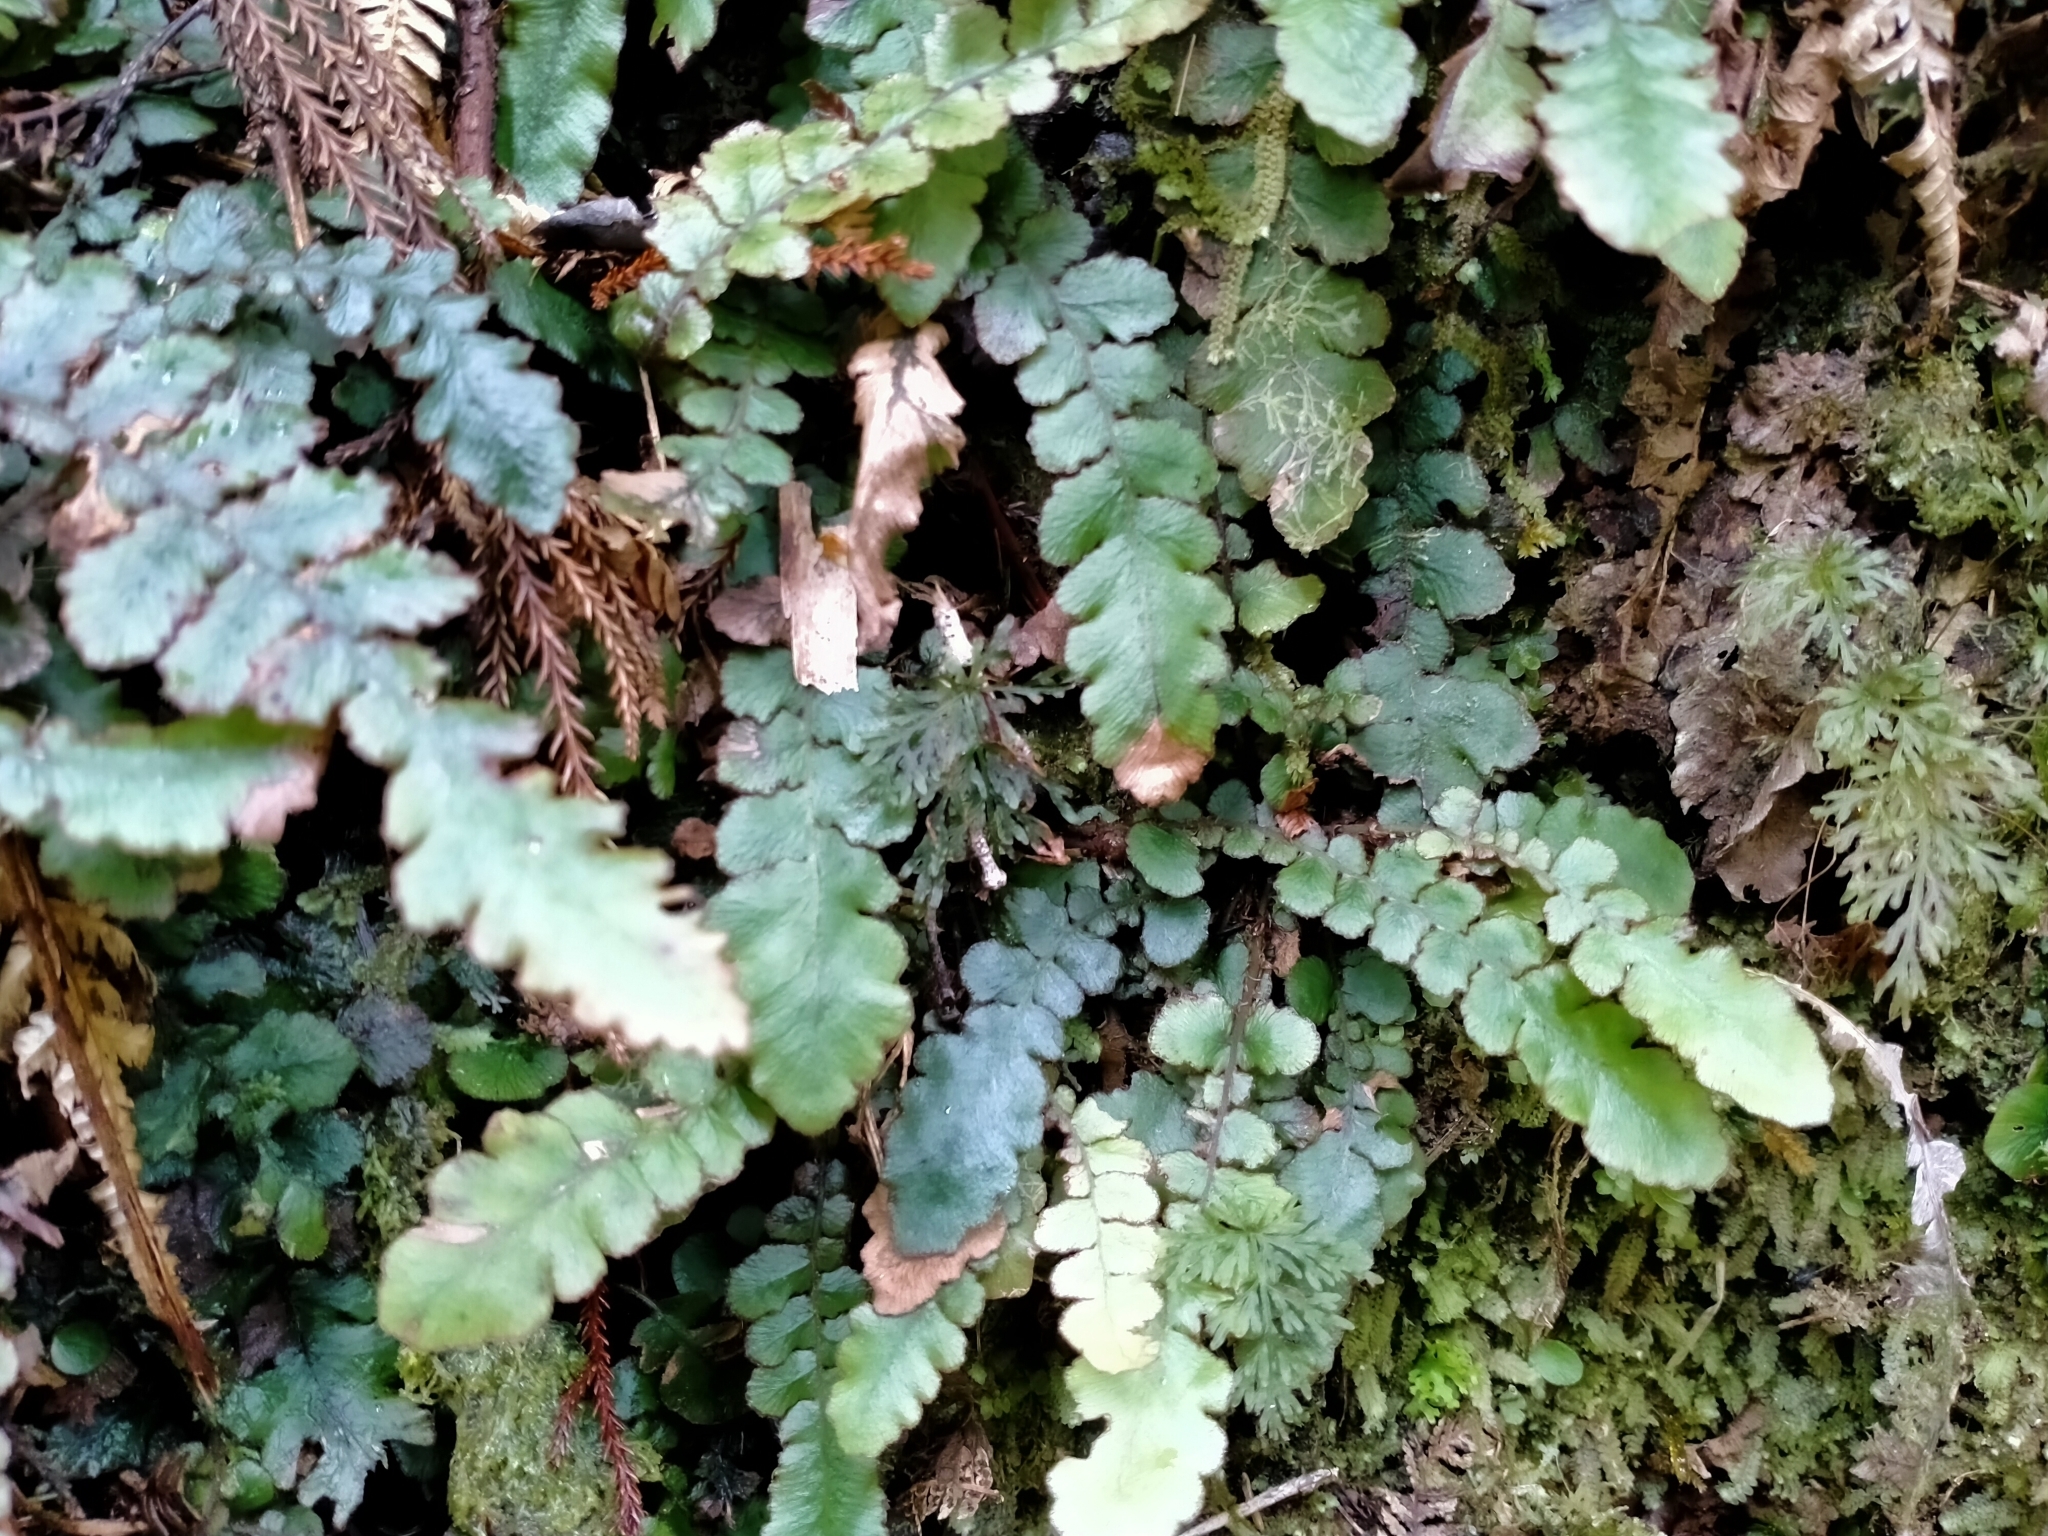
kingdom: Plantae
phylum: Tracheophyta
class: Polypodiopsida
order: Polypodiales
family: Blechnaceae
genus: Cranfillia
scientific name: Cranfillia nigra
